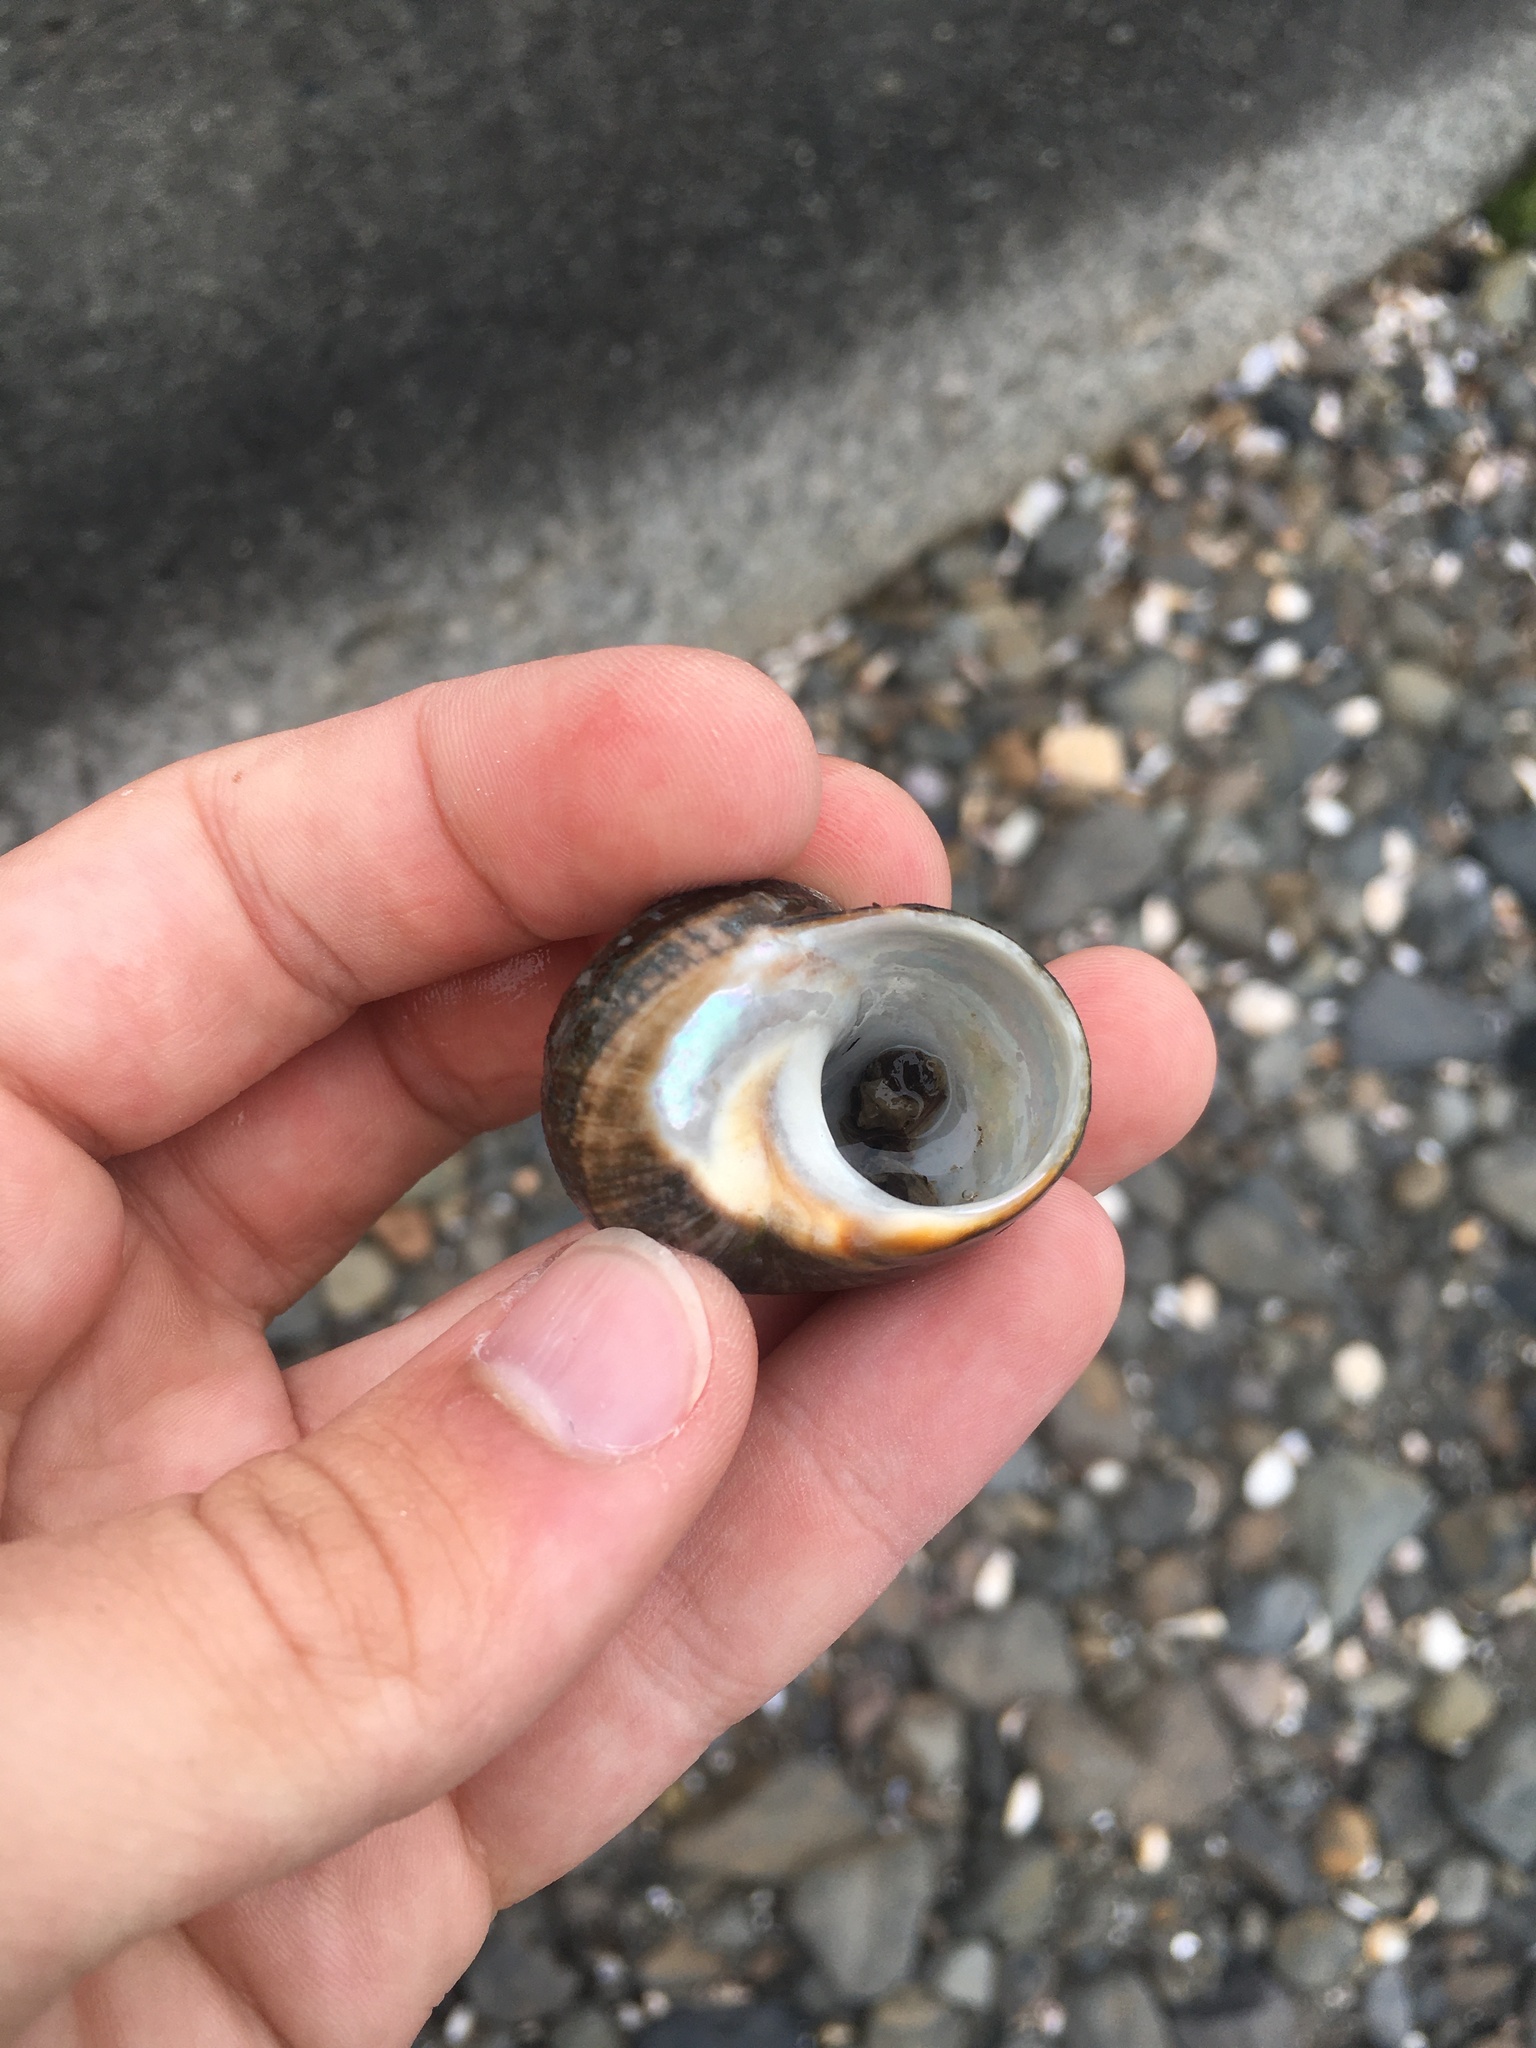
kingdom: Animalia
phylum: Mollusca
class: Gastropoda
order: Trochida
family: Turbinidae
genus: Lunella
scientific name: Lunella smaragda
